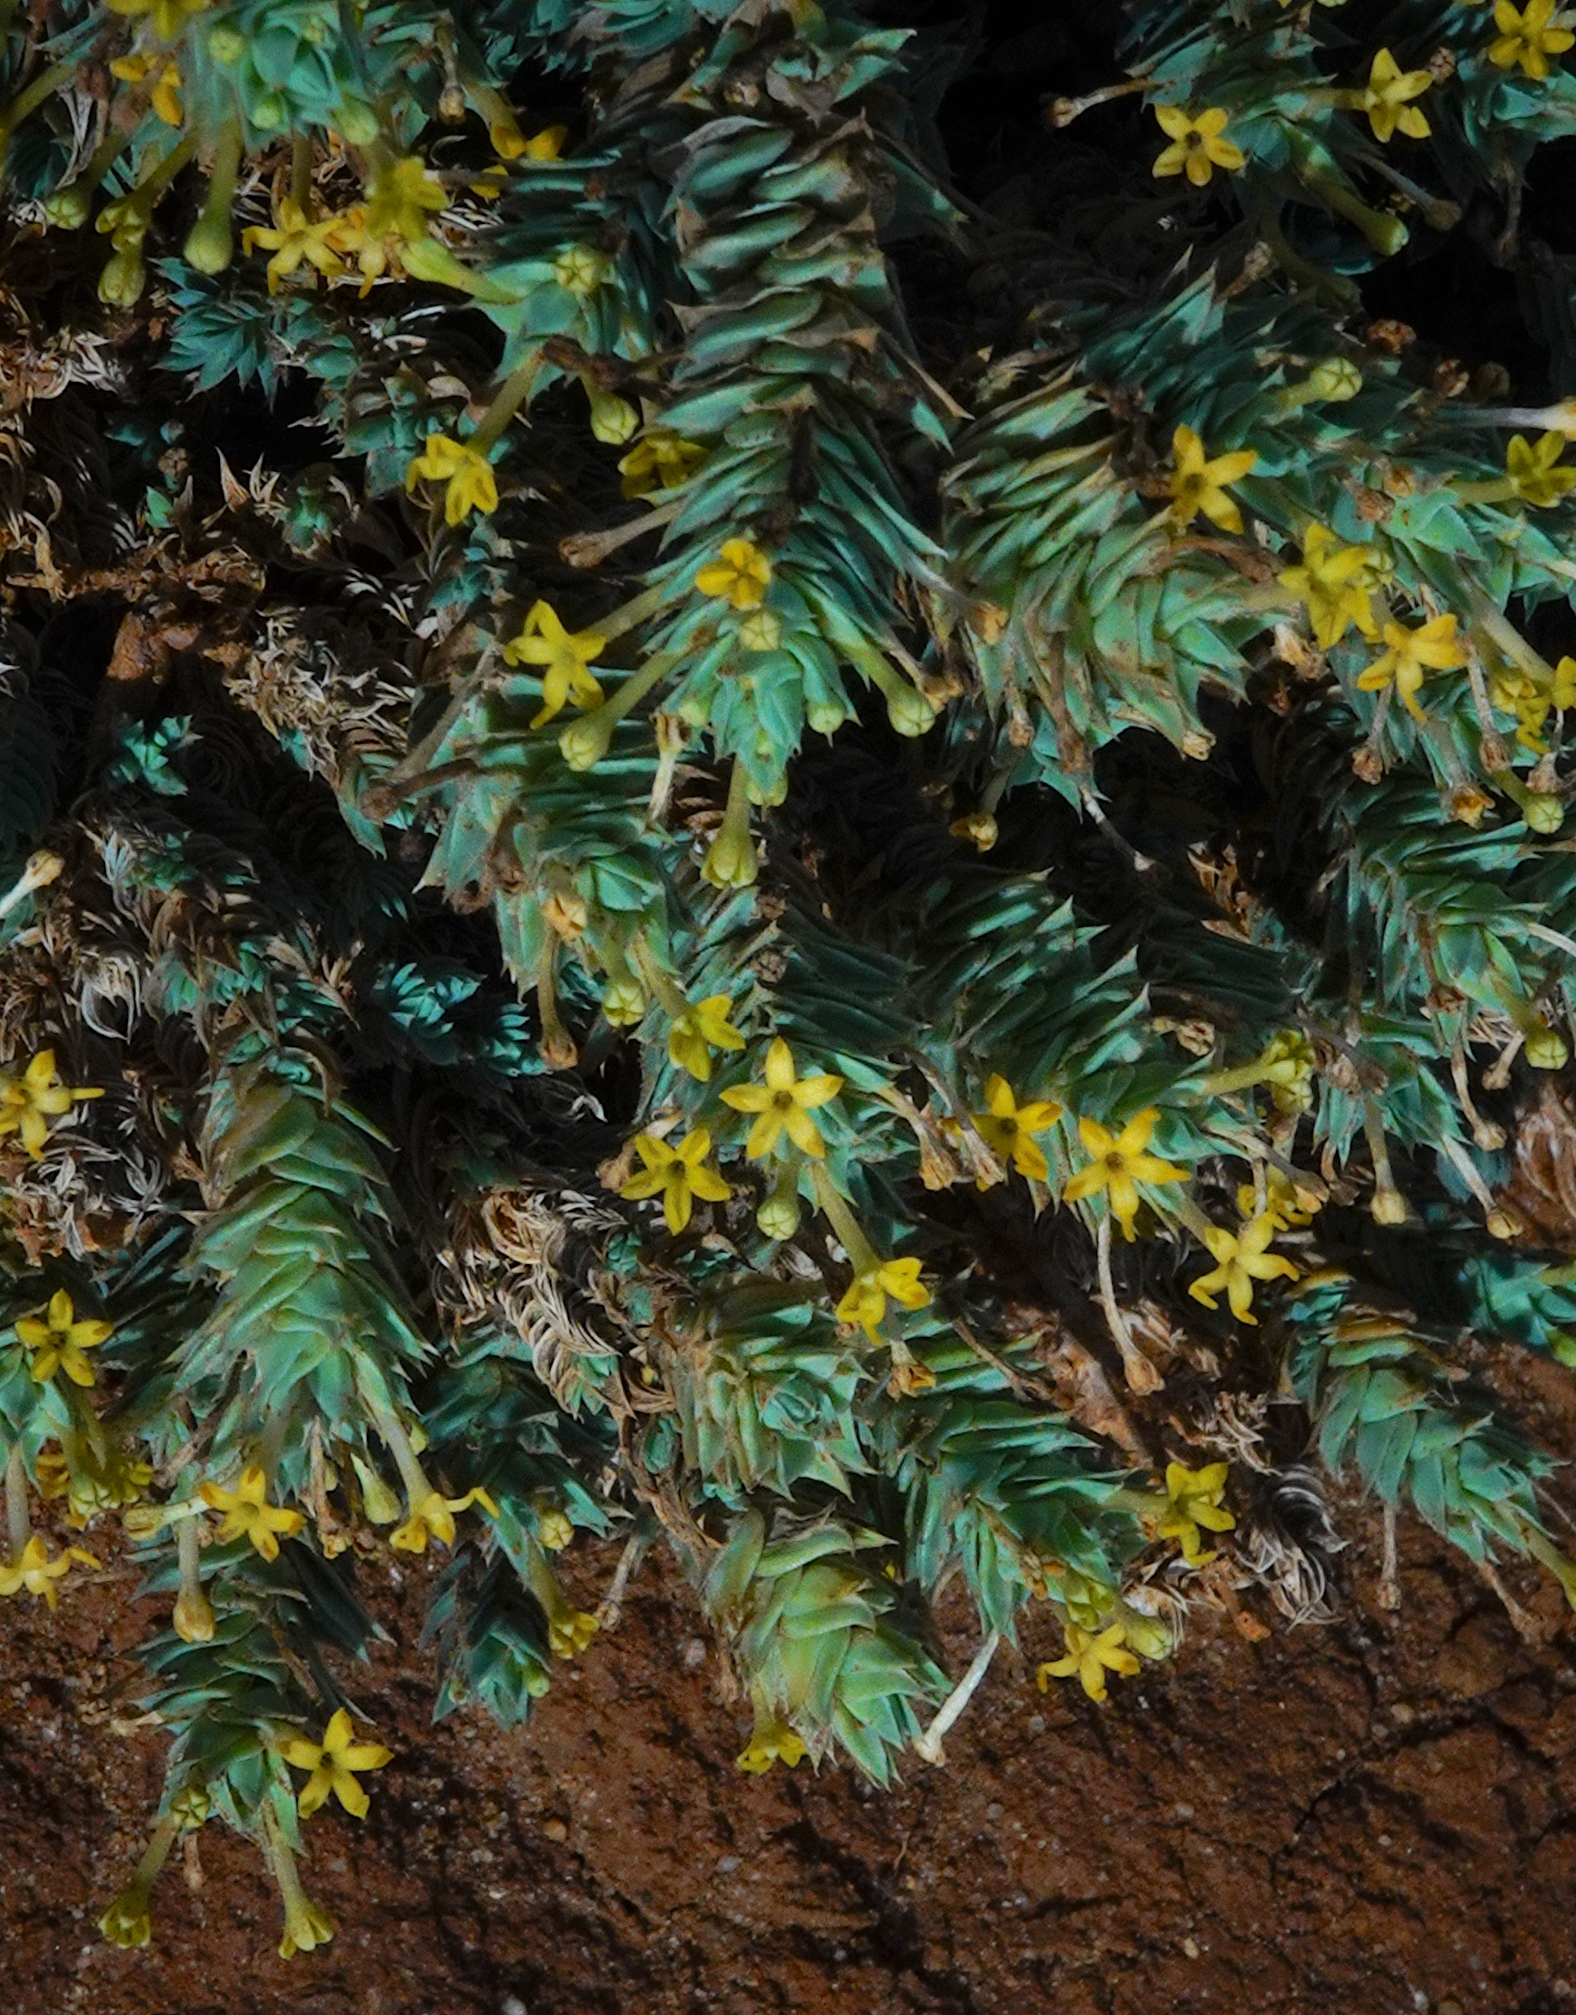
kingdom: Plantae
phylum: Tracheophyta
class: Magnoliopsida
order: Gentianales
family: Rubiaceae
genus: Crucianella
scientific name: Crucianella maritima
